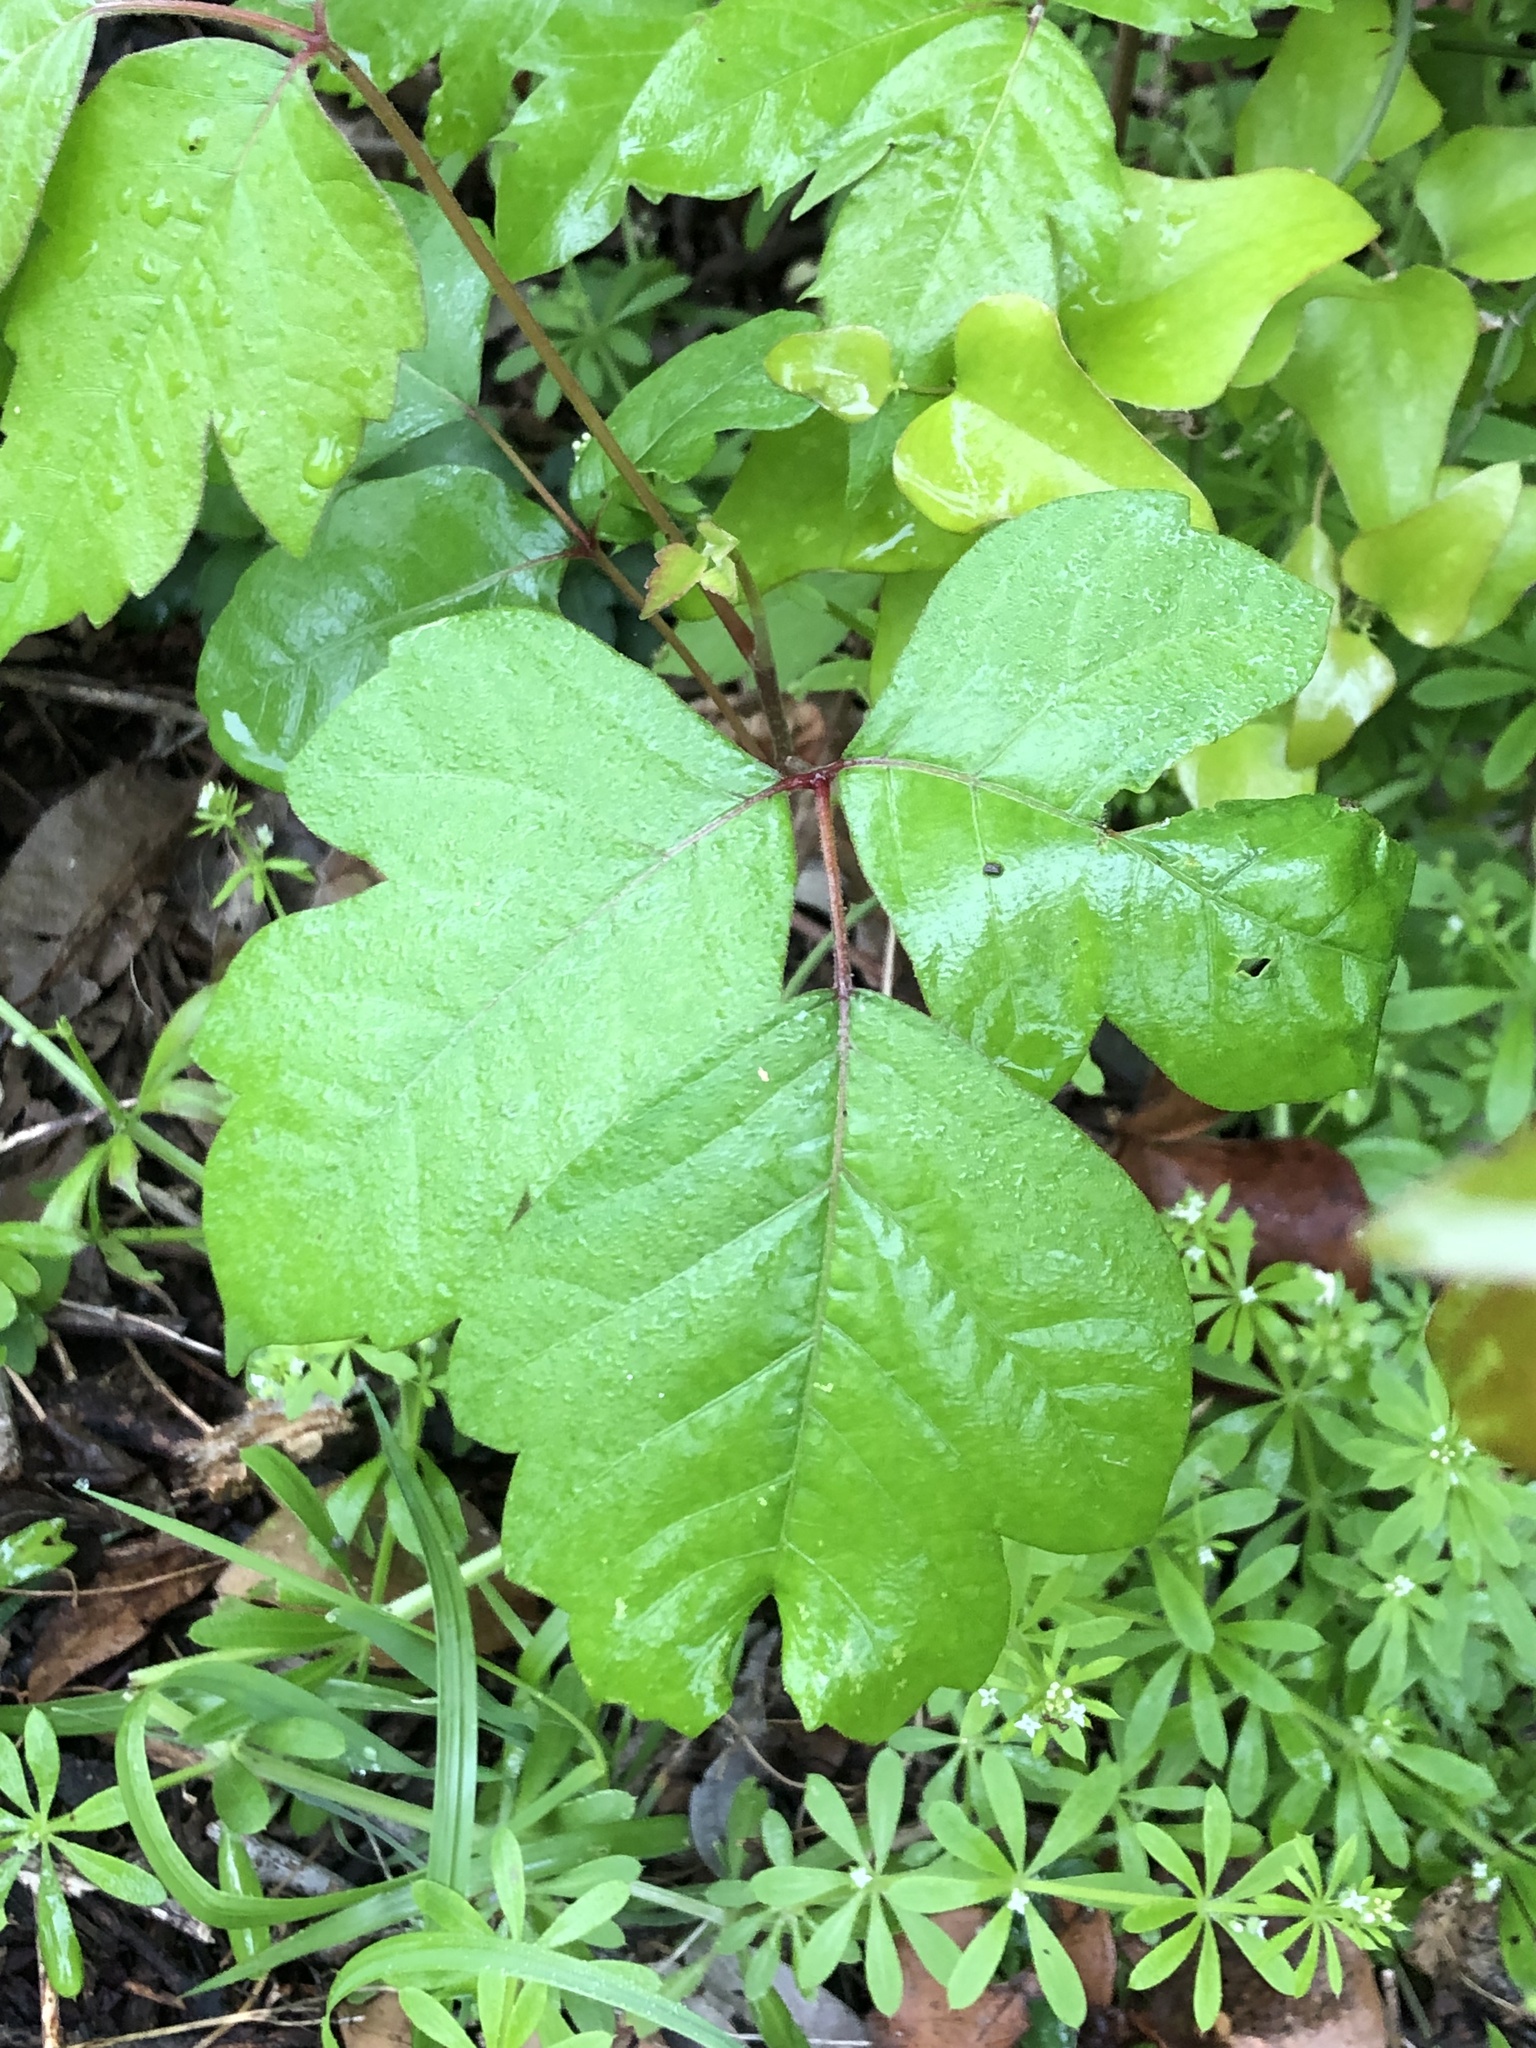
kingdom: Plantae
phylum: Tracheophyta
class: Magnoliopsida
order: Sapindales
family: Anacardiaceae
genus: Toxicodendron
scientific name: Toxicodendron radicans
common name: Poison ivy
